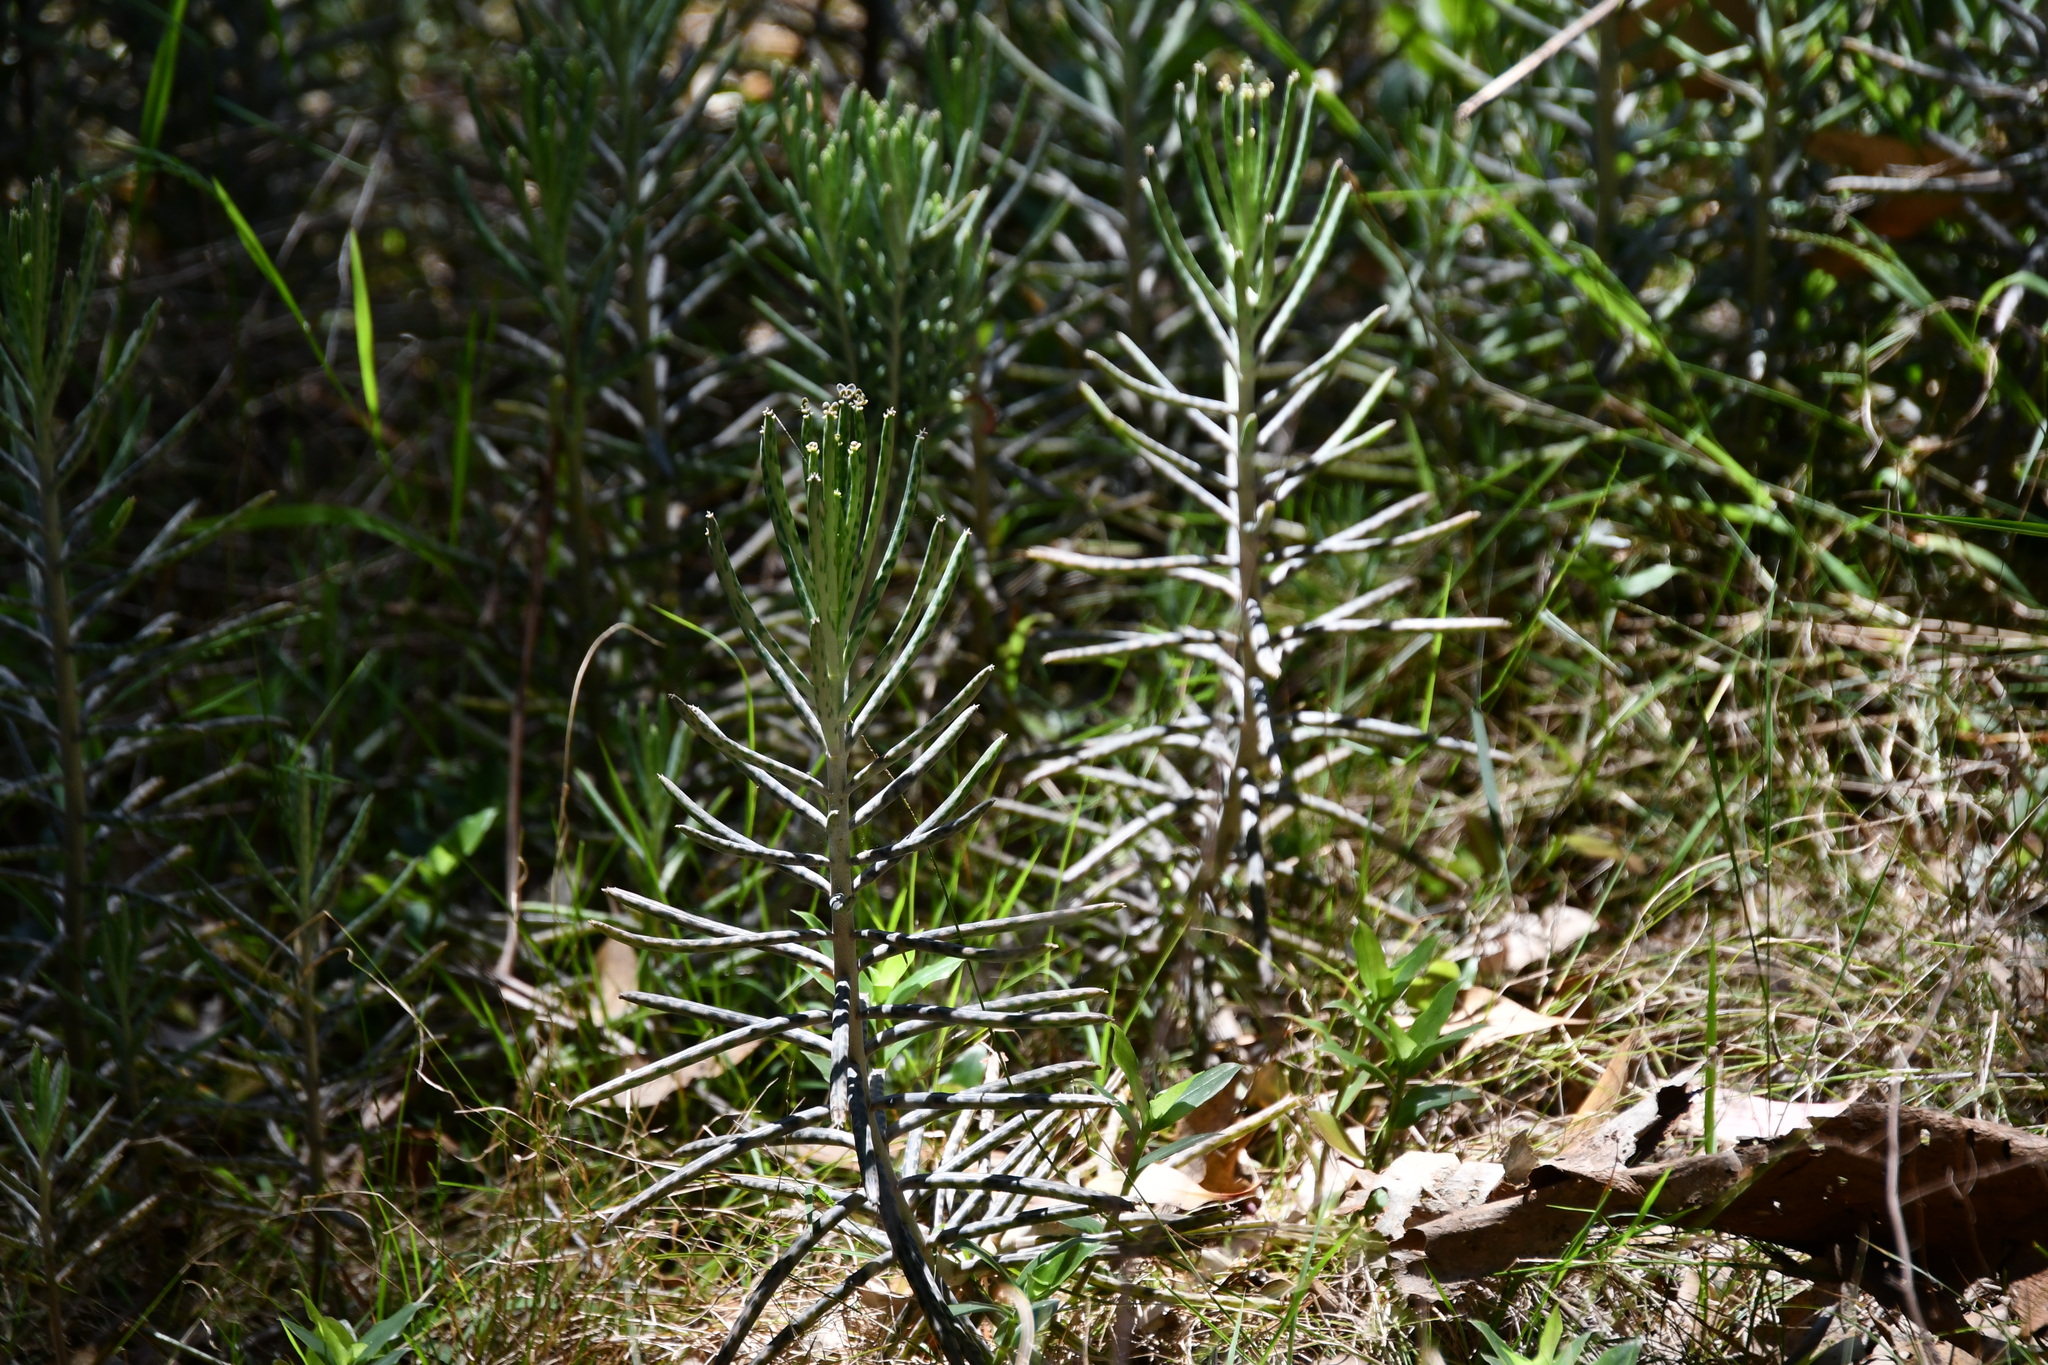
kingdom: Plantae
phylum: Tracheophyta
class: Magnoliopsida
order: Saxifragales
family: Crassulaceae
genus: Kalanchoe
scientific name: Kalanchoe delagoensis
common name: Chandelier plant
